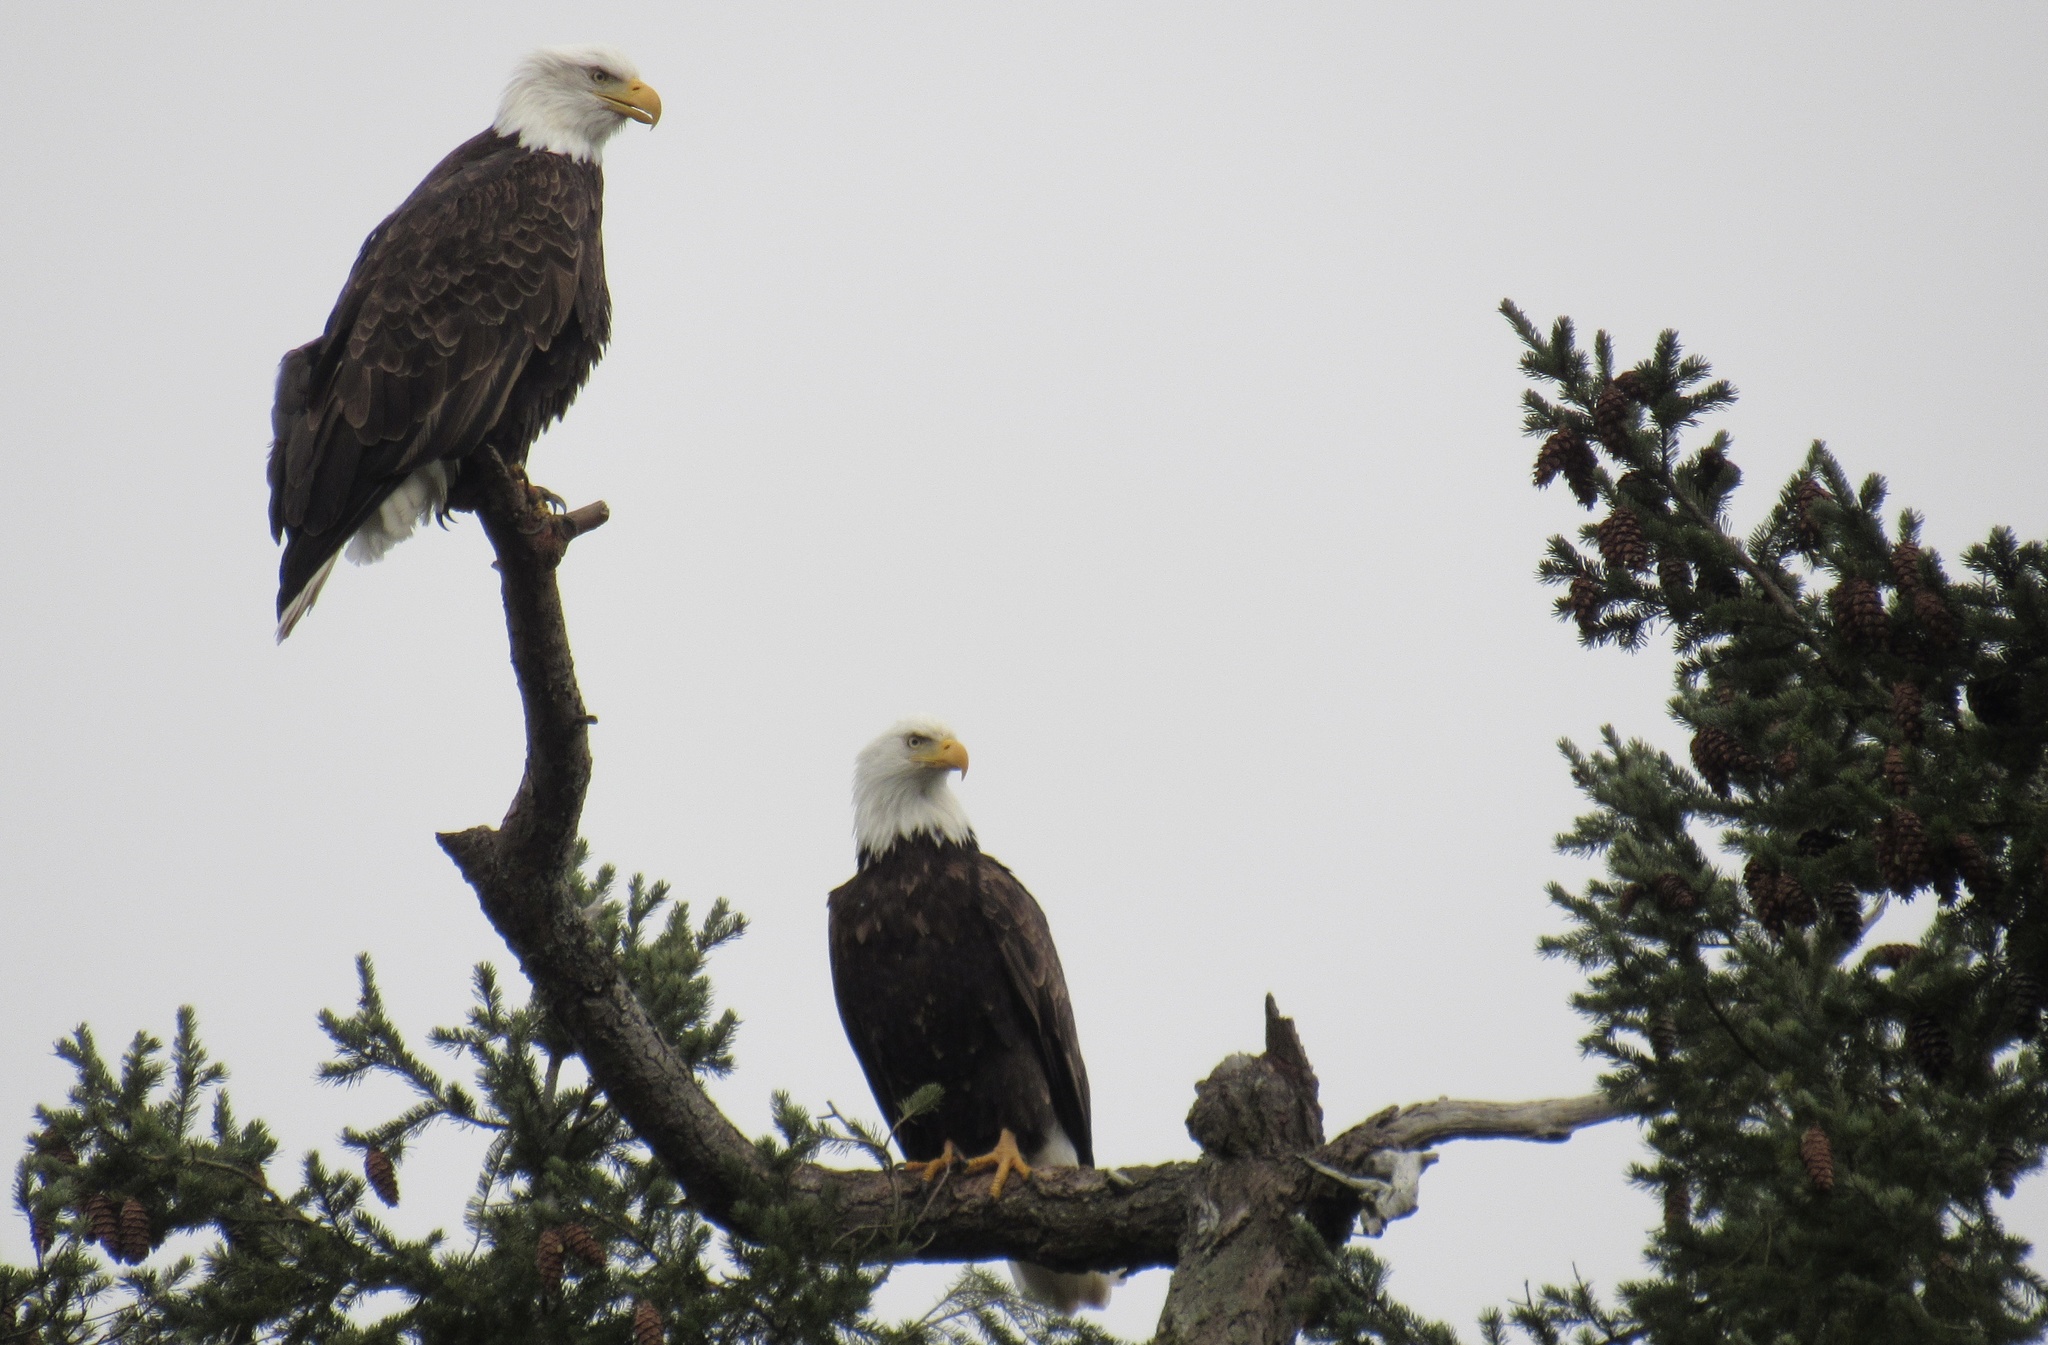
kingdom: Animalia
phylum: Chordata
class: Aves
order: Accipitriformes
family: Accipitridae
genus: Haliaeetus
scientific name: Haliaeetus leucocephalus
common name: Bald eagle
